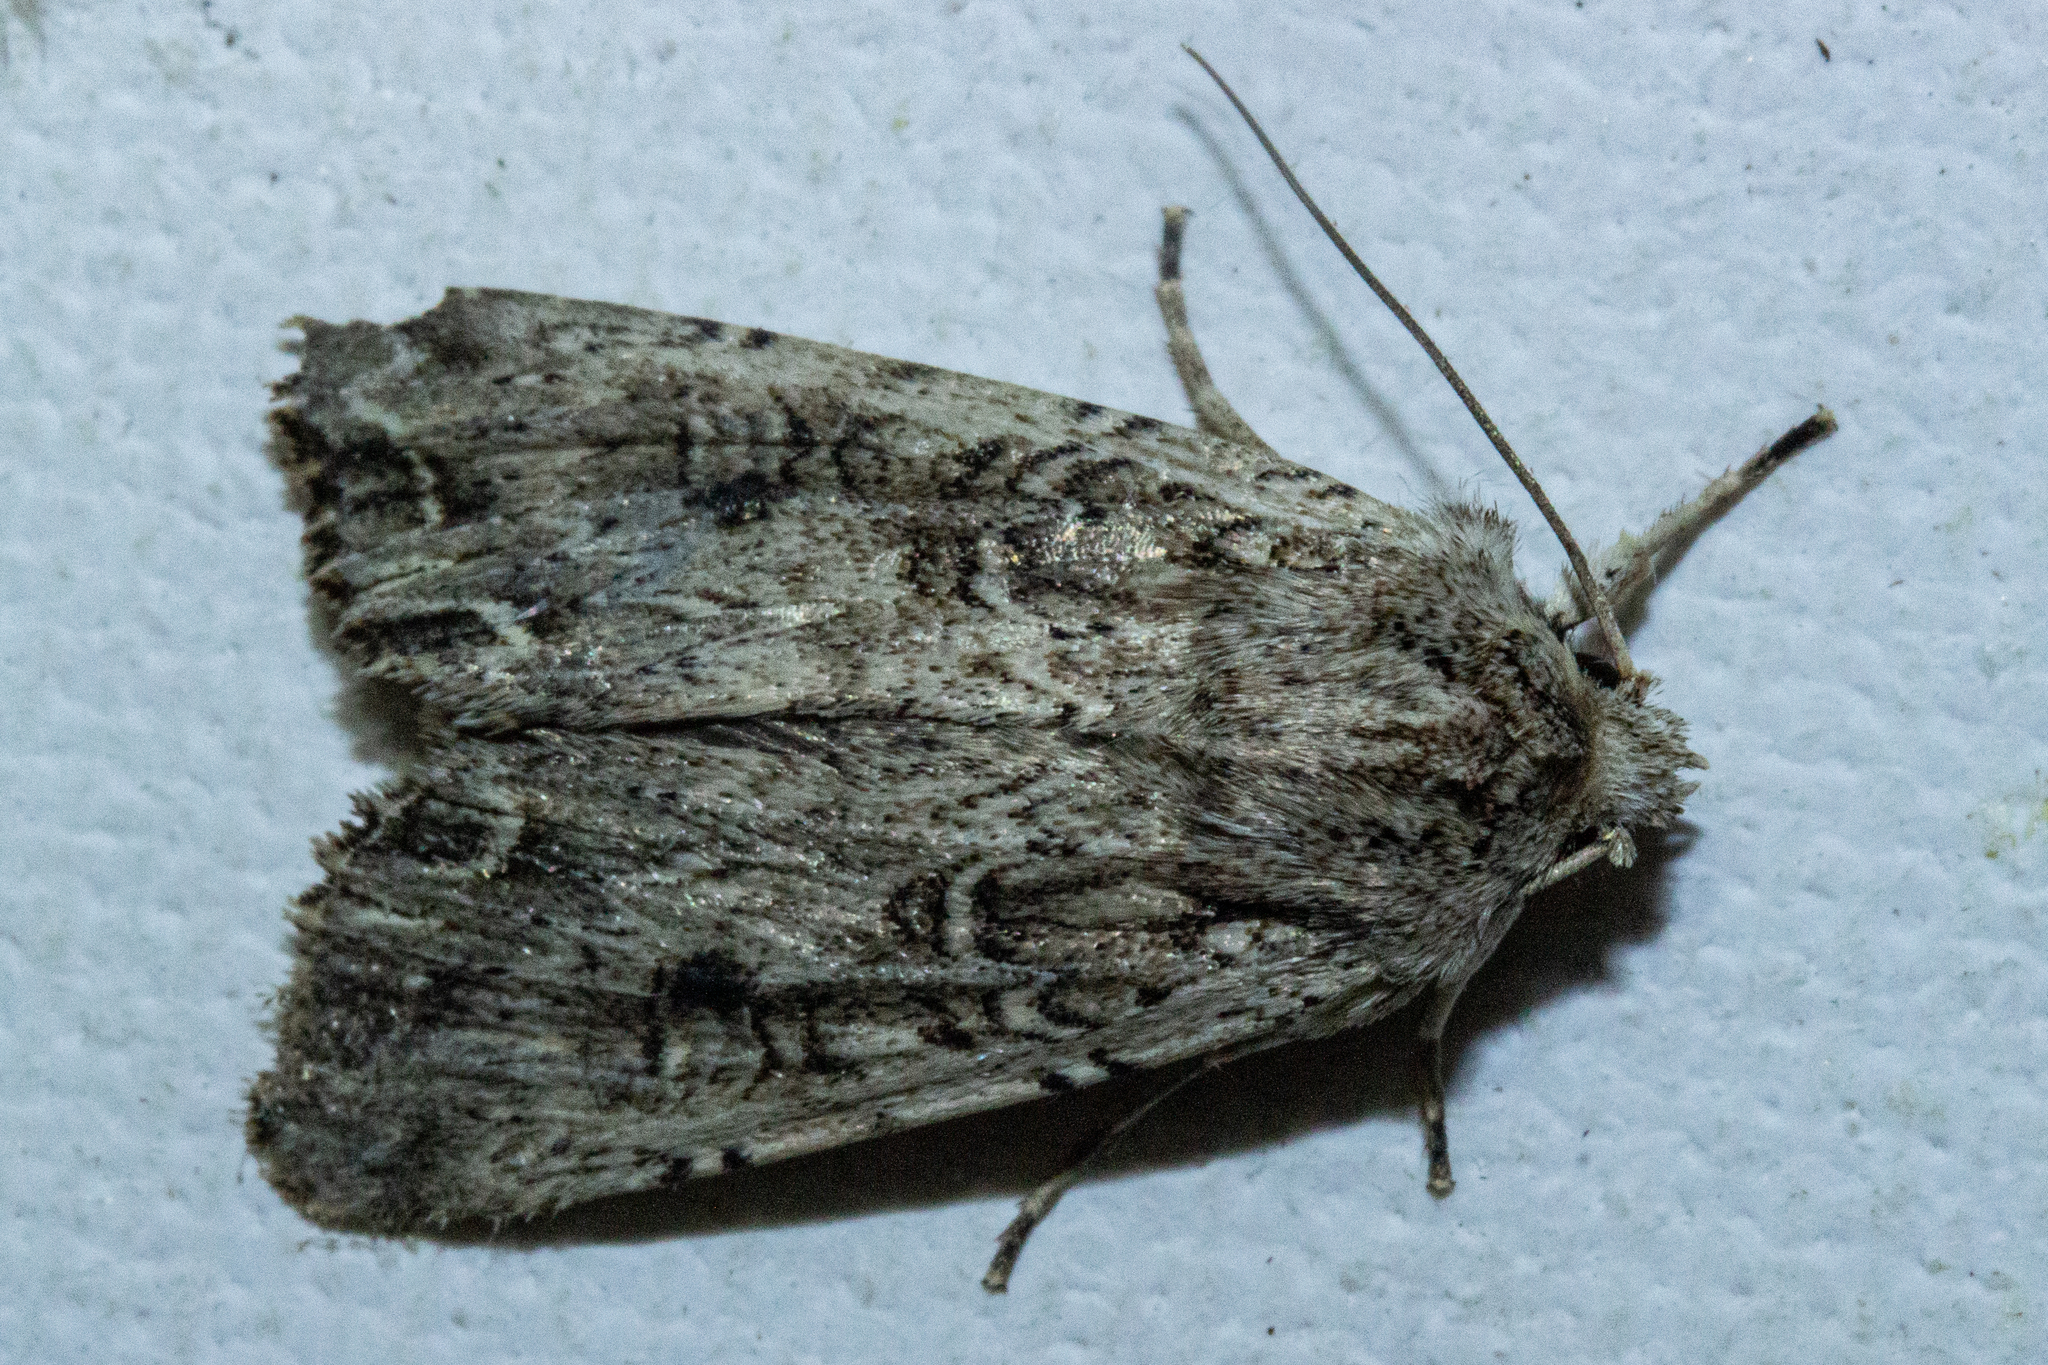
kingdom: Animalia
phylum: Arthropoda
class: Insecta
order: Lepidoptera
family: Noctuidae
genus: Ichneutica
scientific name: Ichneutica lignana
